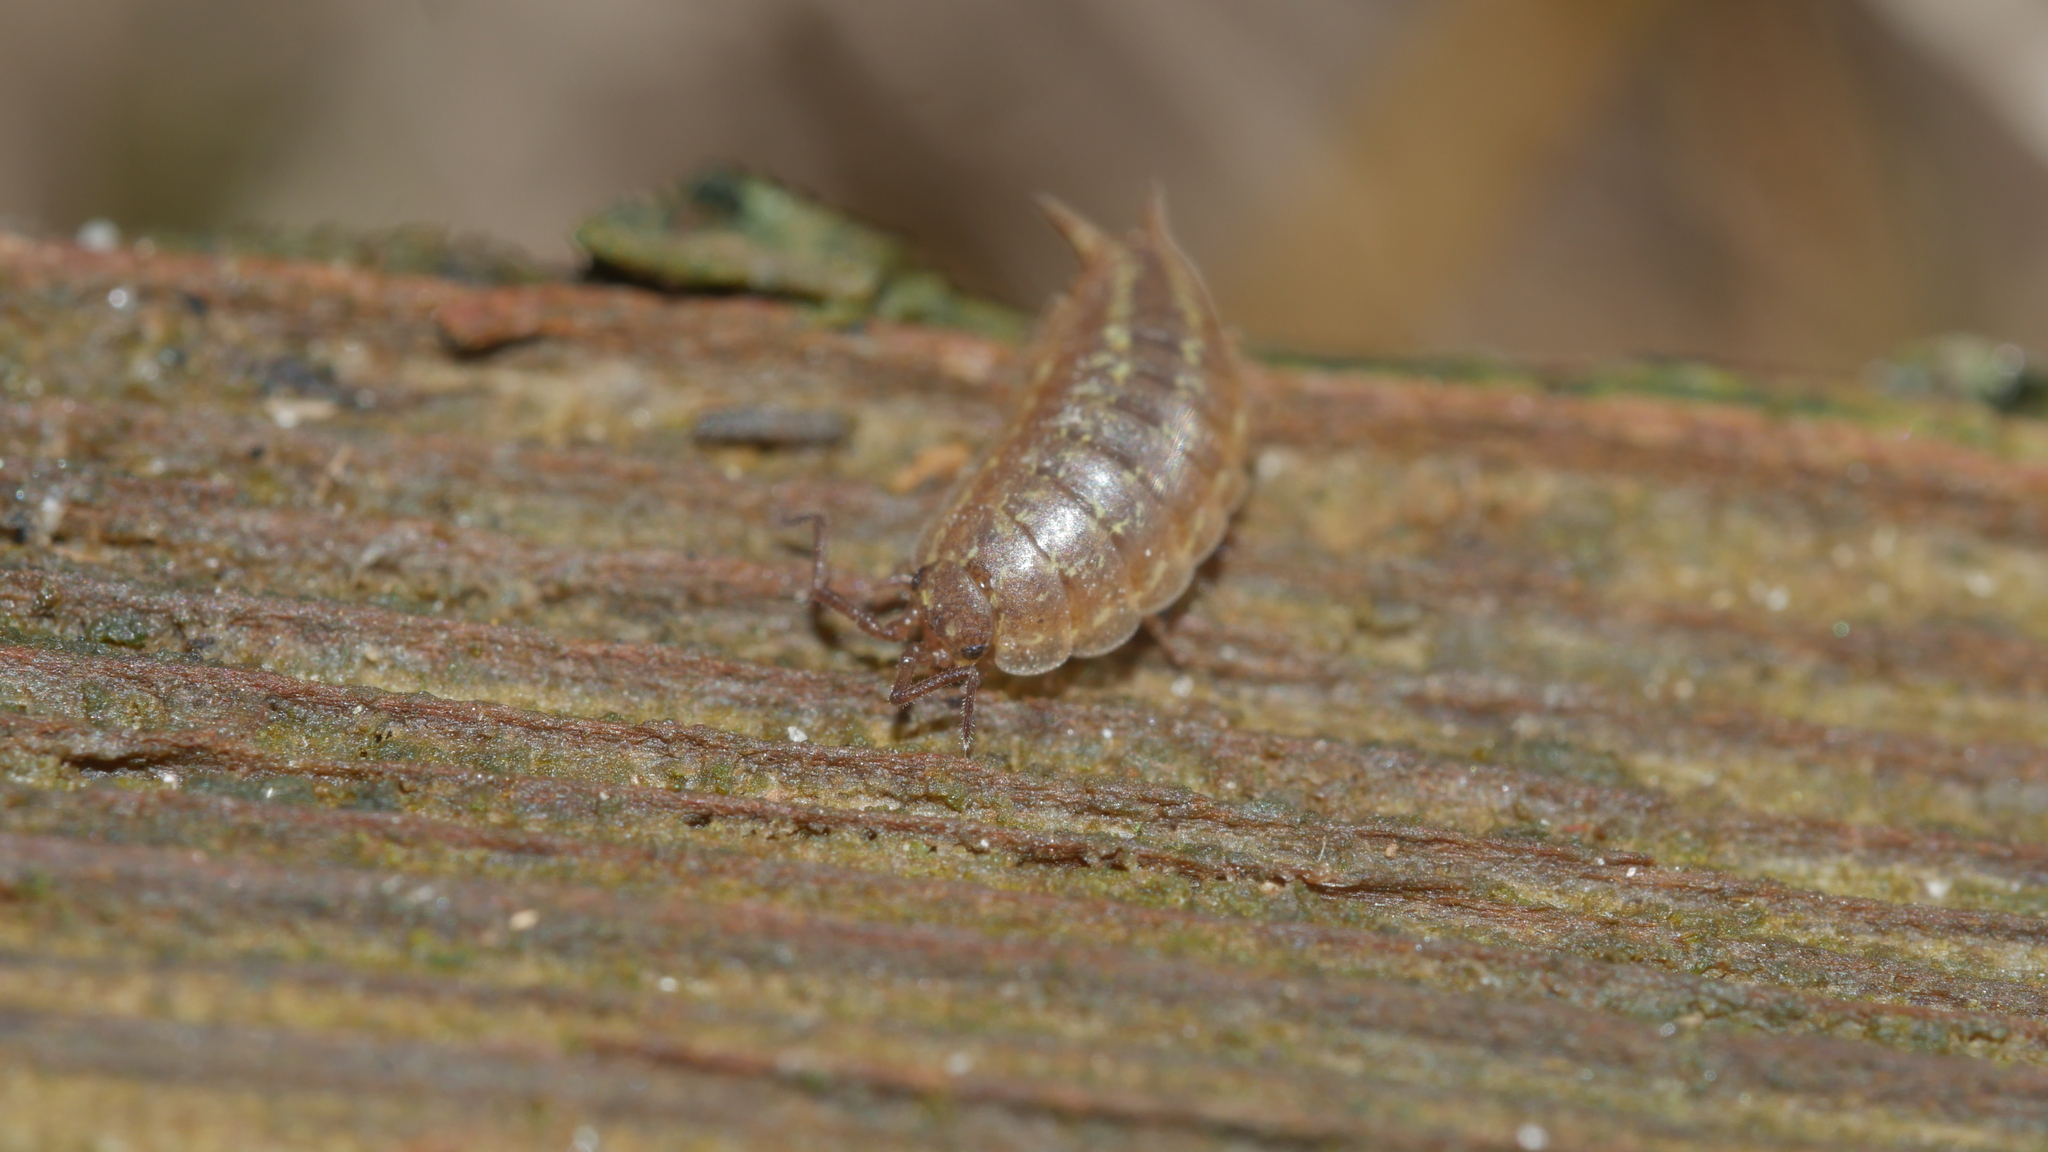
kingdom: Animalia
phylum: Arthropoda
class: Malacostraca
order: Isopoda
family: Halophilosciidae
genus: Littorophiloscia
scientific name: Littorophiloscia vittata
